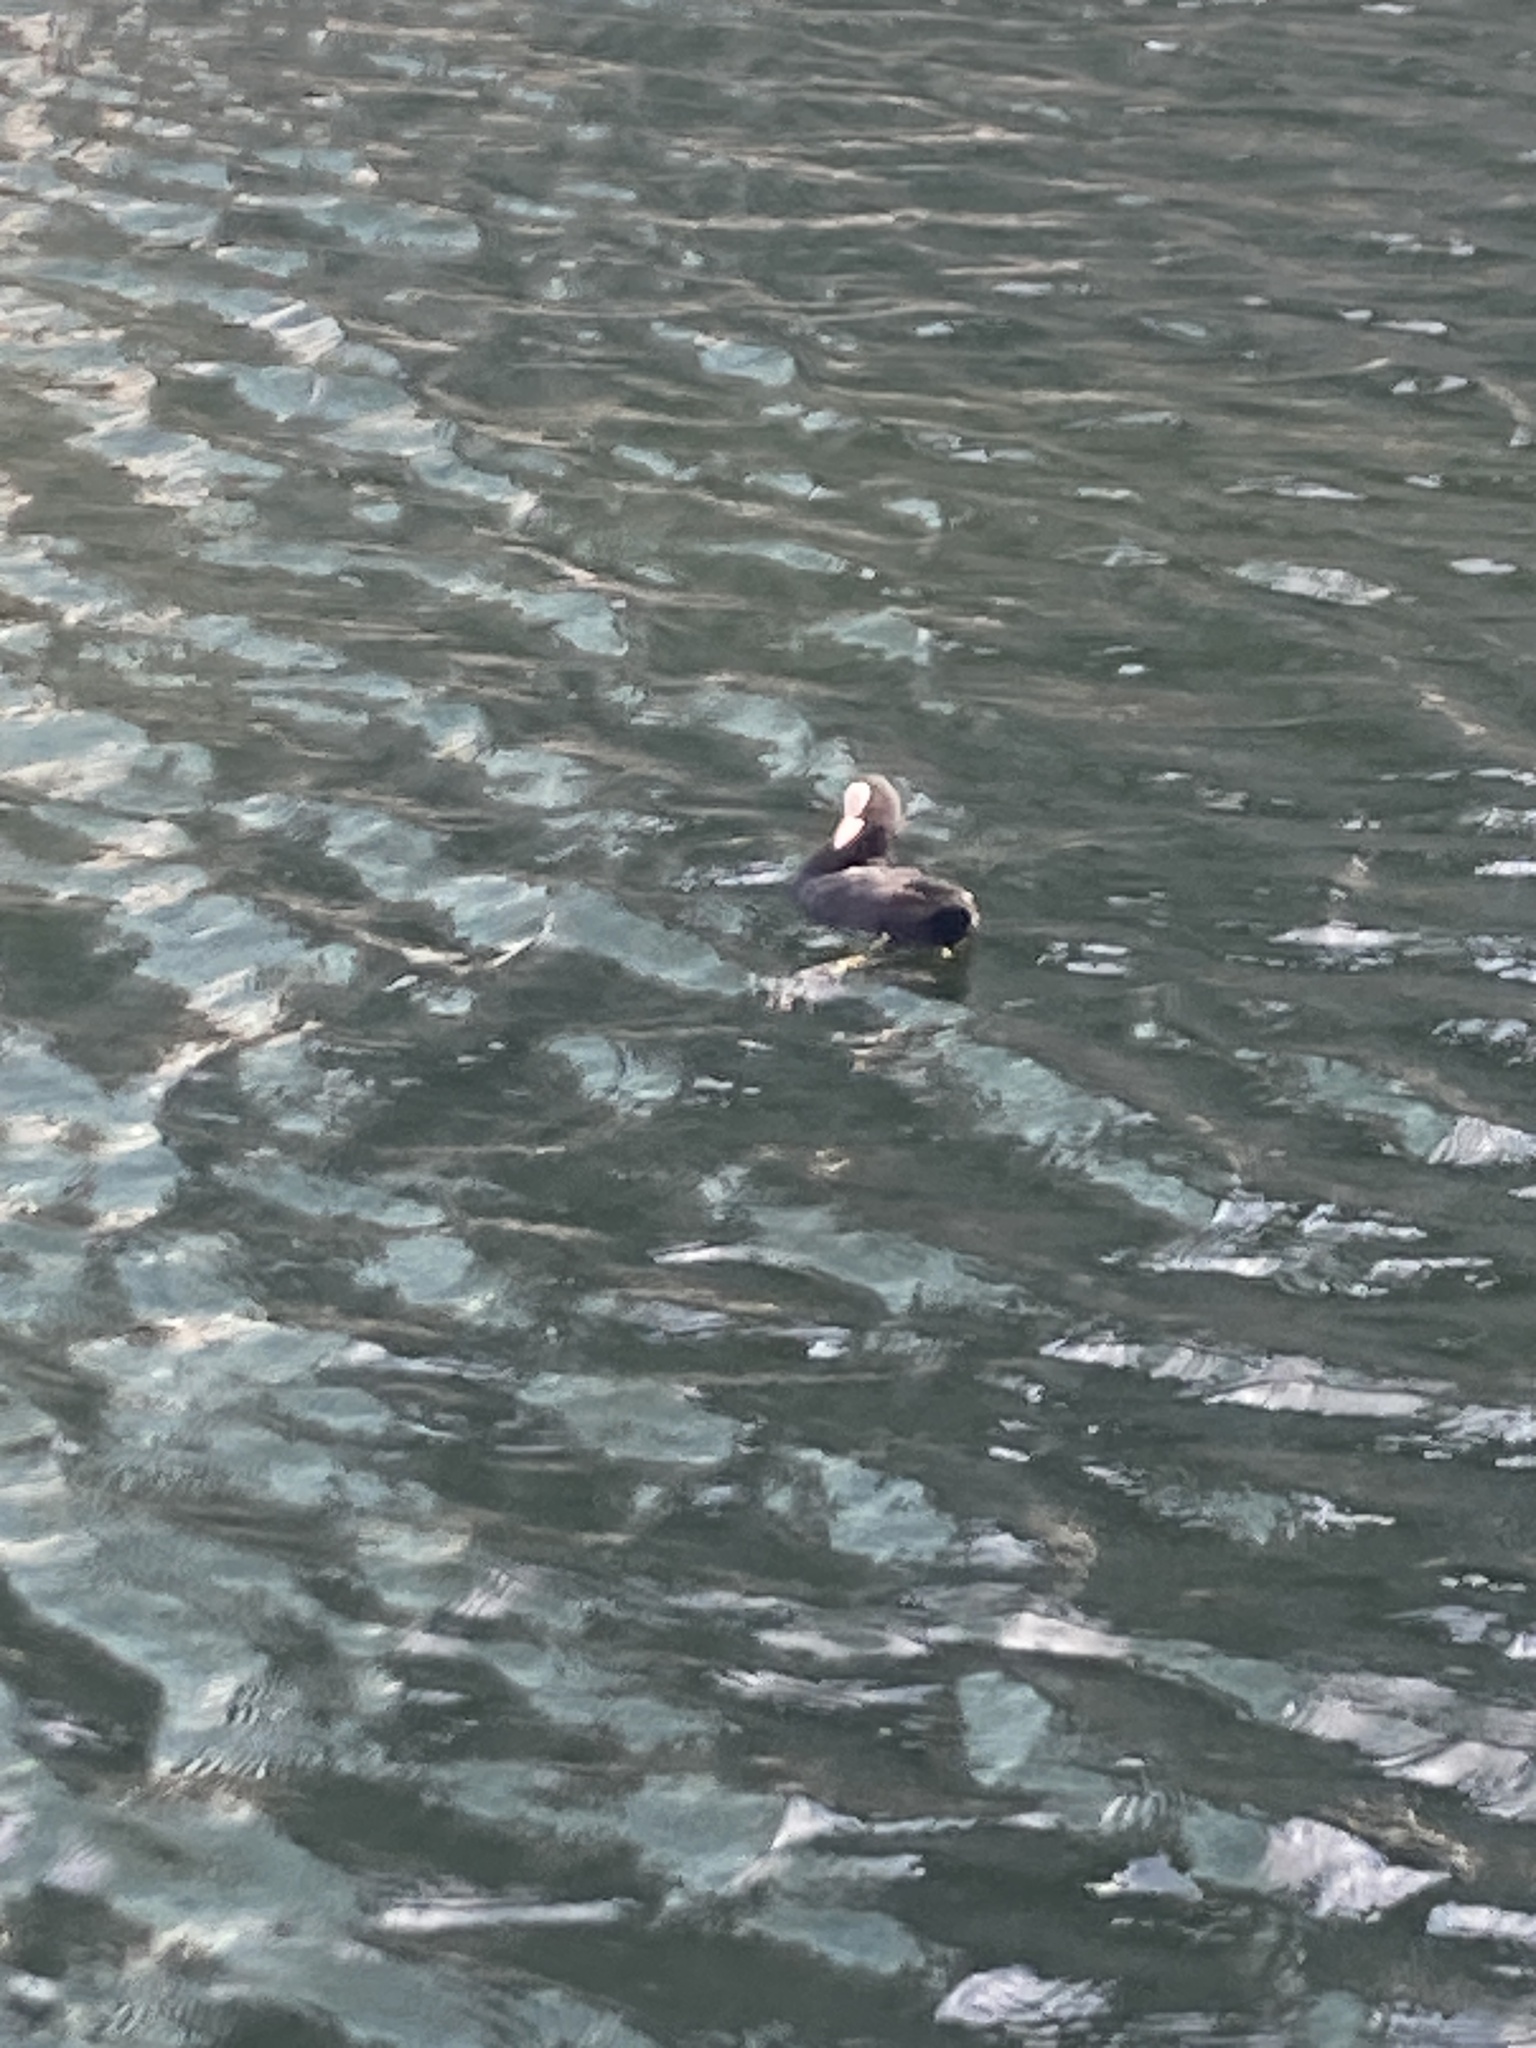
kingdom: Animalia
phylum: Chordata
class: Aves
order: Gruiformes
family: Rallidae
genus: Fulica
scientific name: Fulica atra
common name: Eurasian coot
